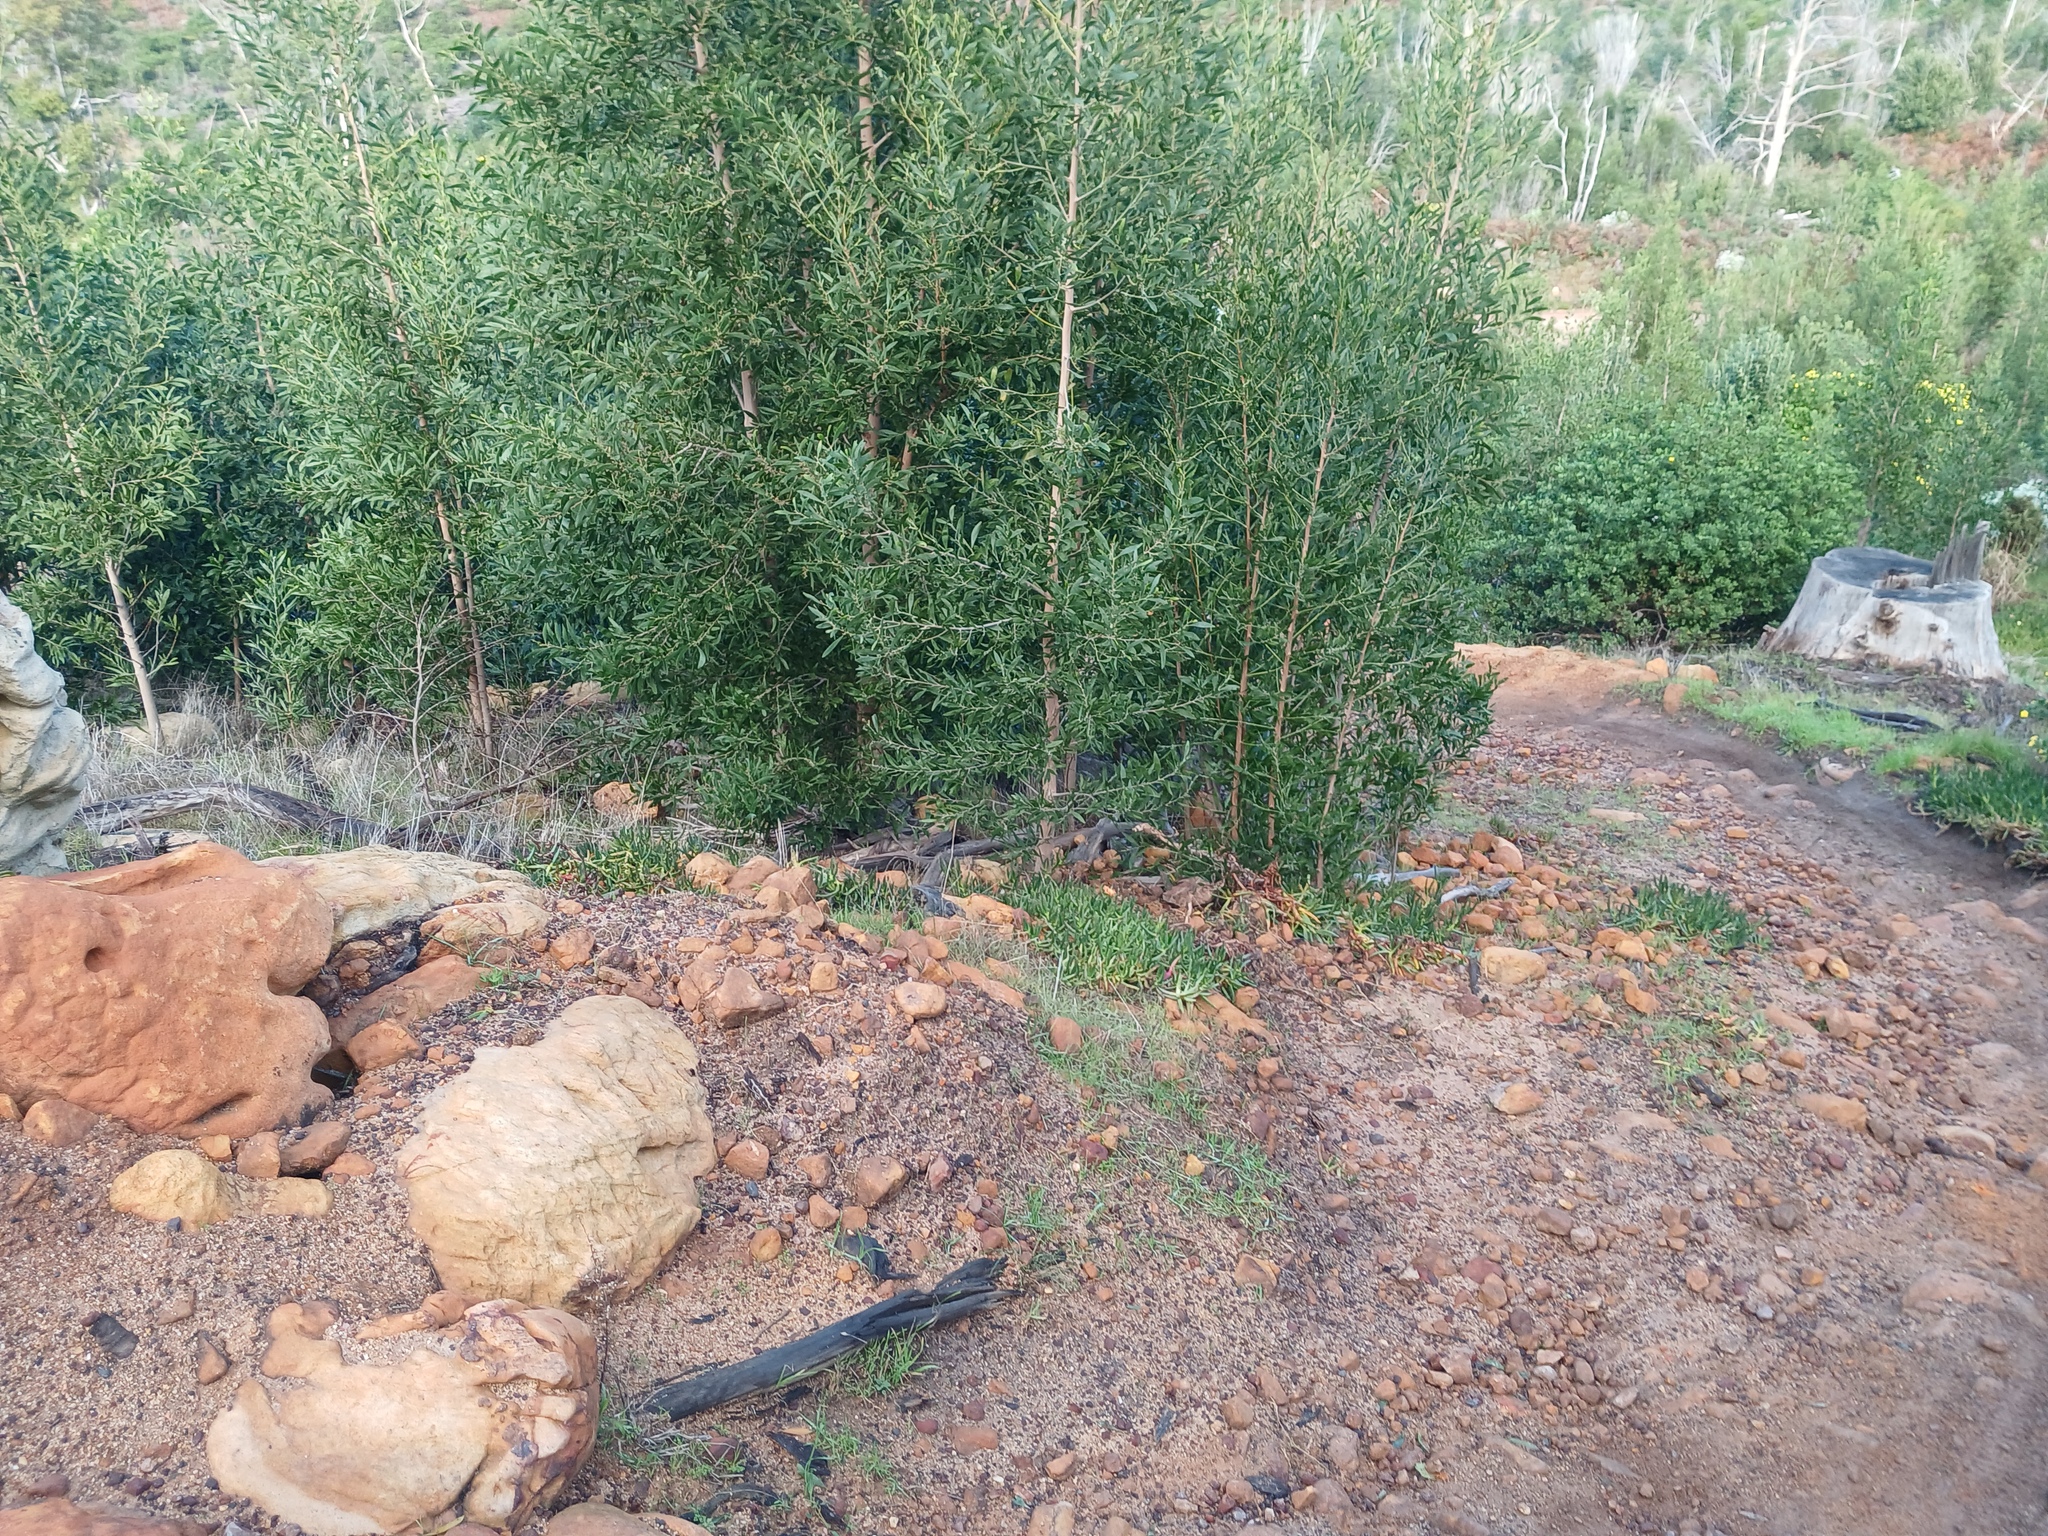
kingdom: Plantae
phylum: Tracheophyta
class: Magnoliopsida
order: Fabales
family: Fabaceae
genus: Acacia
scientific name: Acacia melanoxylon
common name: Blackwood
